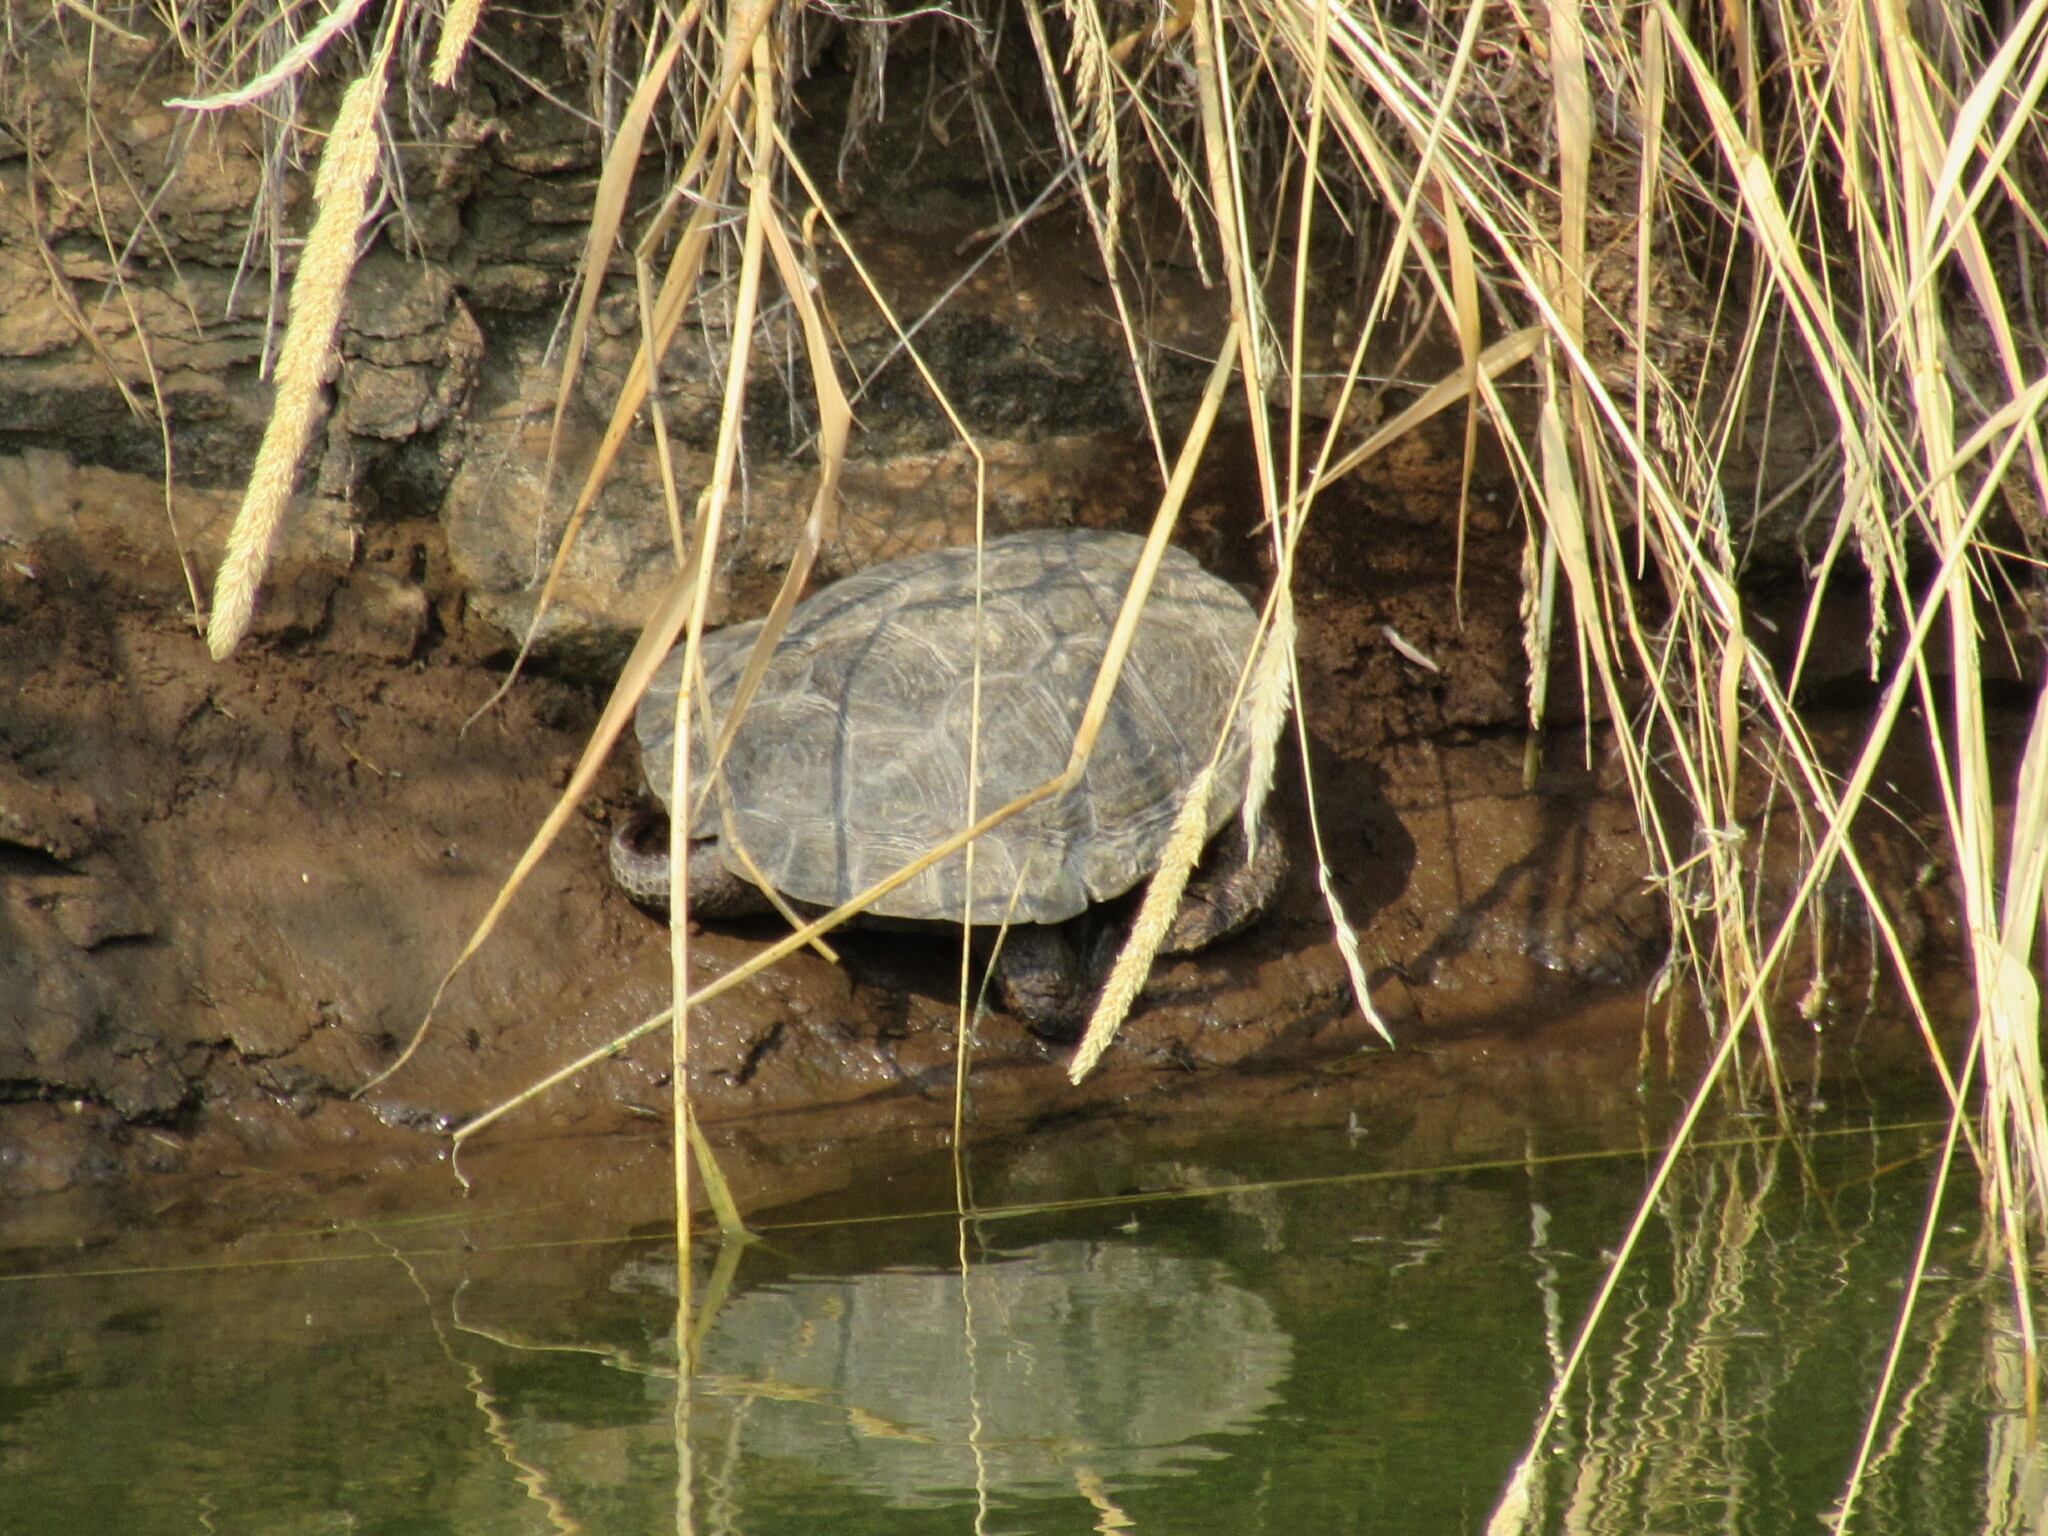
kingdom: Animalia
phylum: Chordata
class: Testudines
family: Emydidae
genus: Actinemys
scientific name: Actinemys marmorata
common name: Western pond turtle
